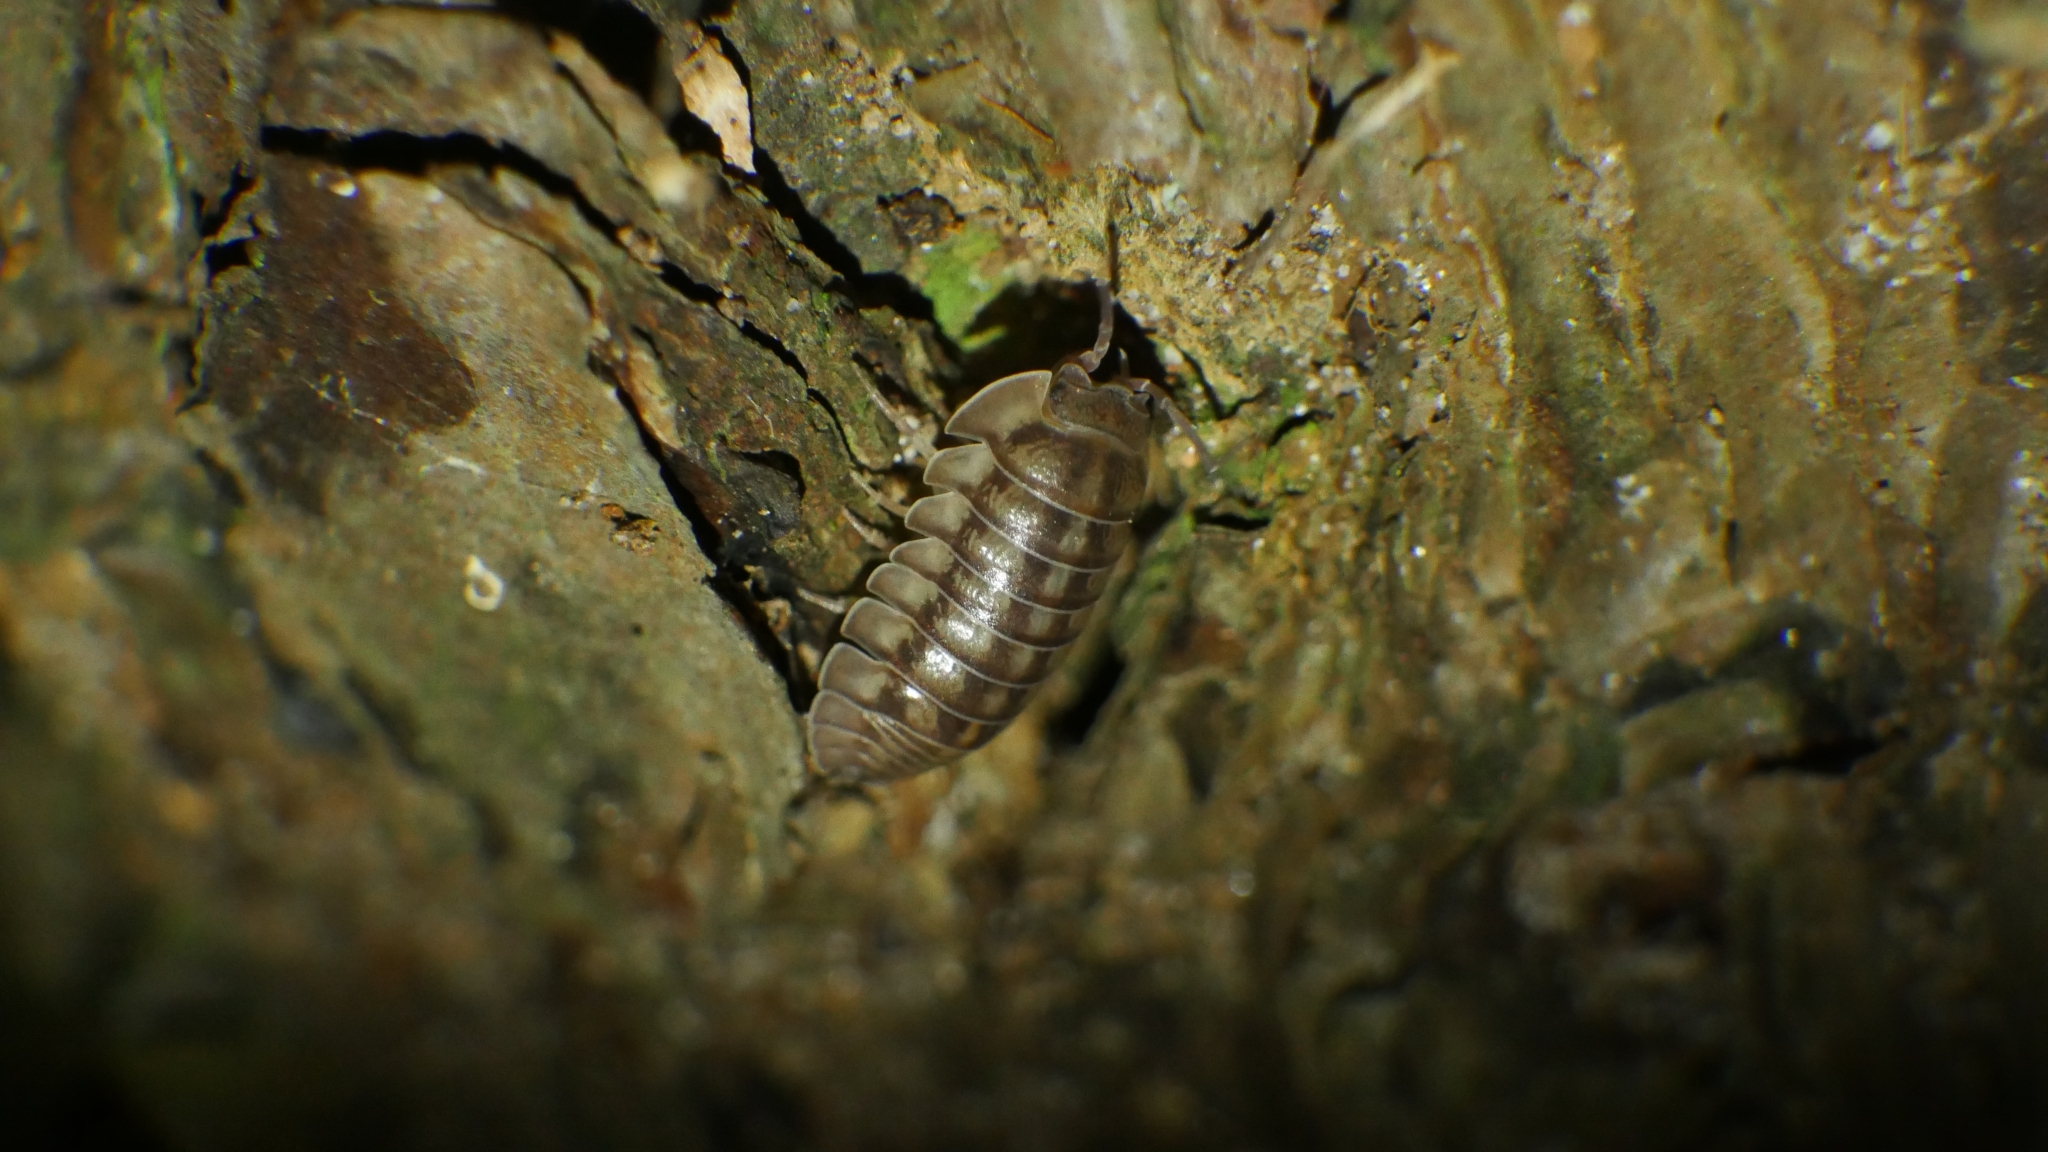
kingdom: Animalia
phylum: Arthropoda
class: Malacostraca
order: Isopoda
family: Armadillidiidae
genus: Armadillidium
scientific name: Armadillidium nasatum
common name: Isopod
